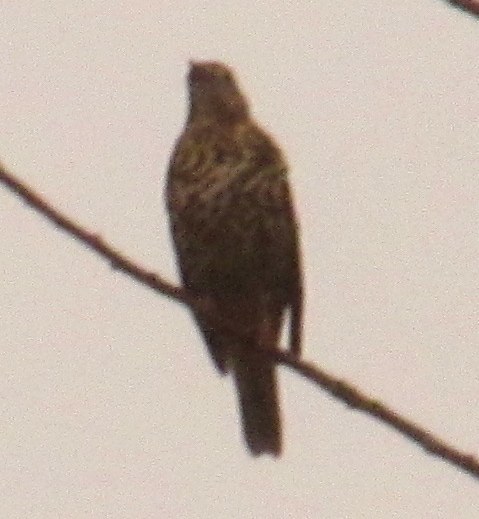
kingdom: Animalia
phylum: Chordata
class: Aves
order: Passeriformes
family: Turdidae
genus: Turdus
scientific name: Turdus viscivorus
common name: Mistle thrush
